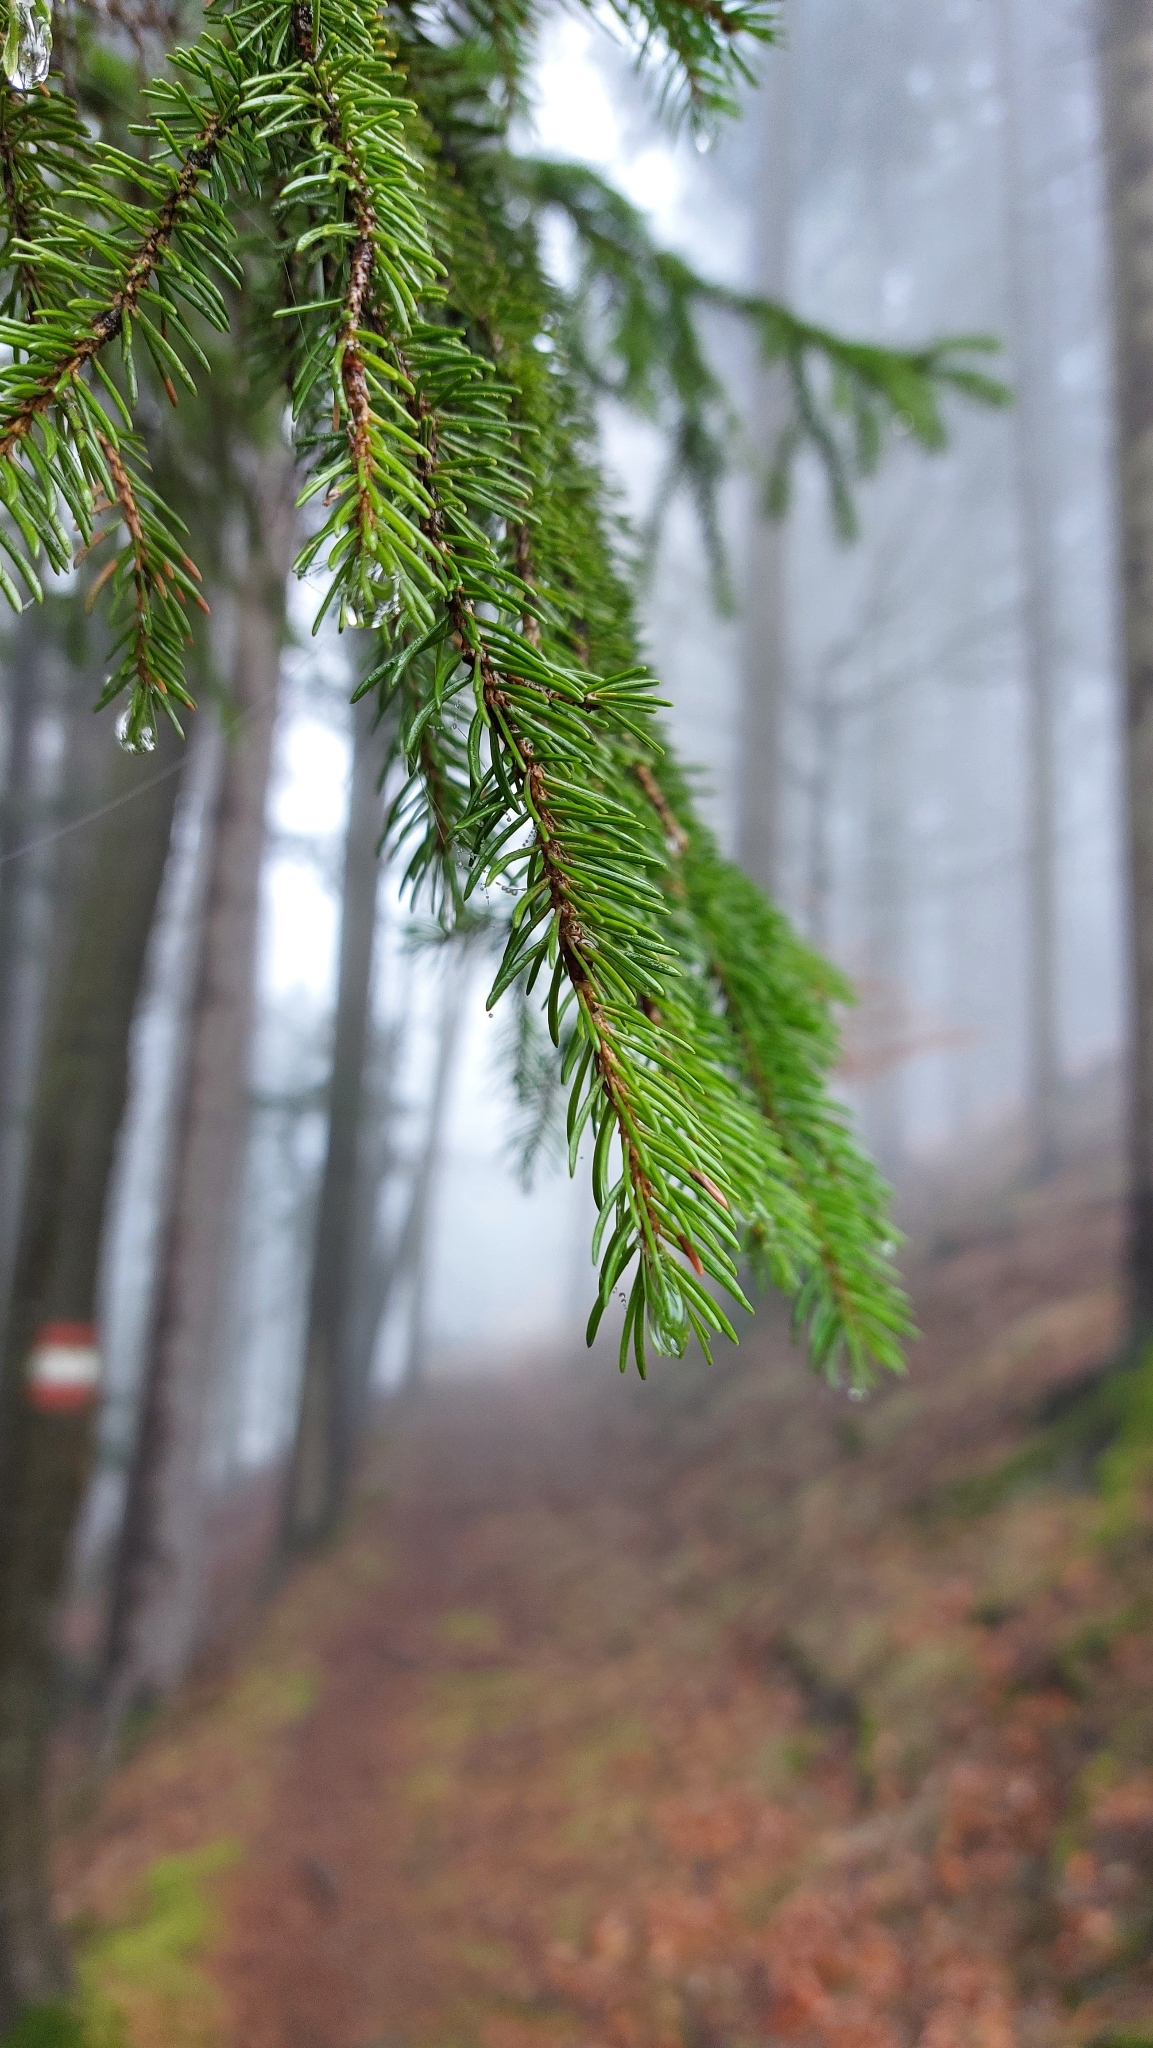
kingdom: Plantae
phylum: Tracheophyta
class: Pinopsida
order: Pinales
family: Pinaceae
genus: Picea
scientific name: Picea abies
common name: Norway spruce
